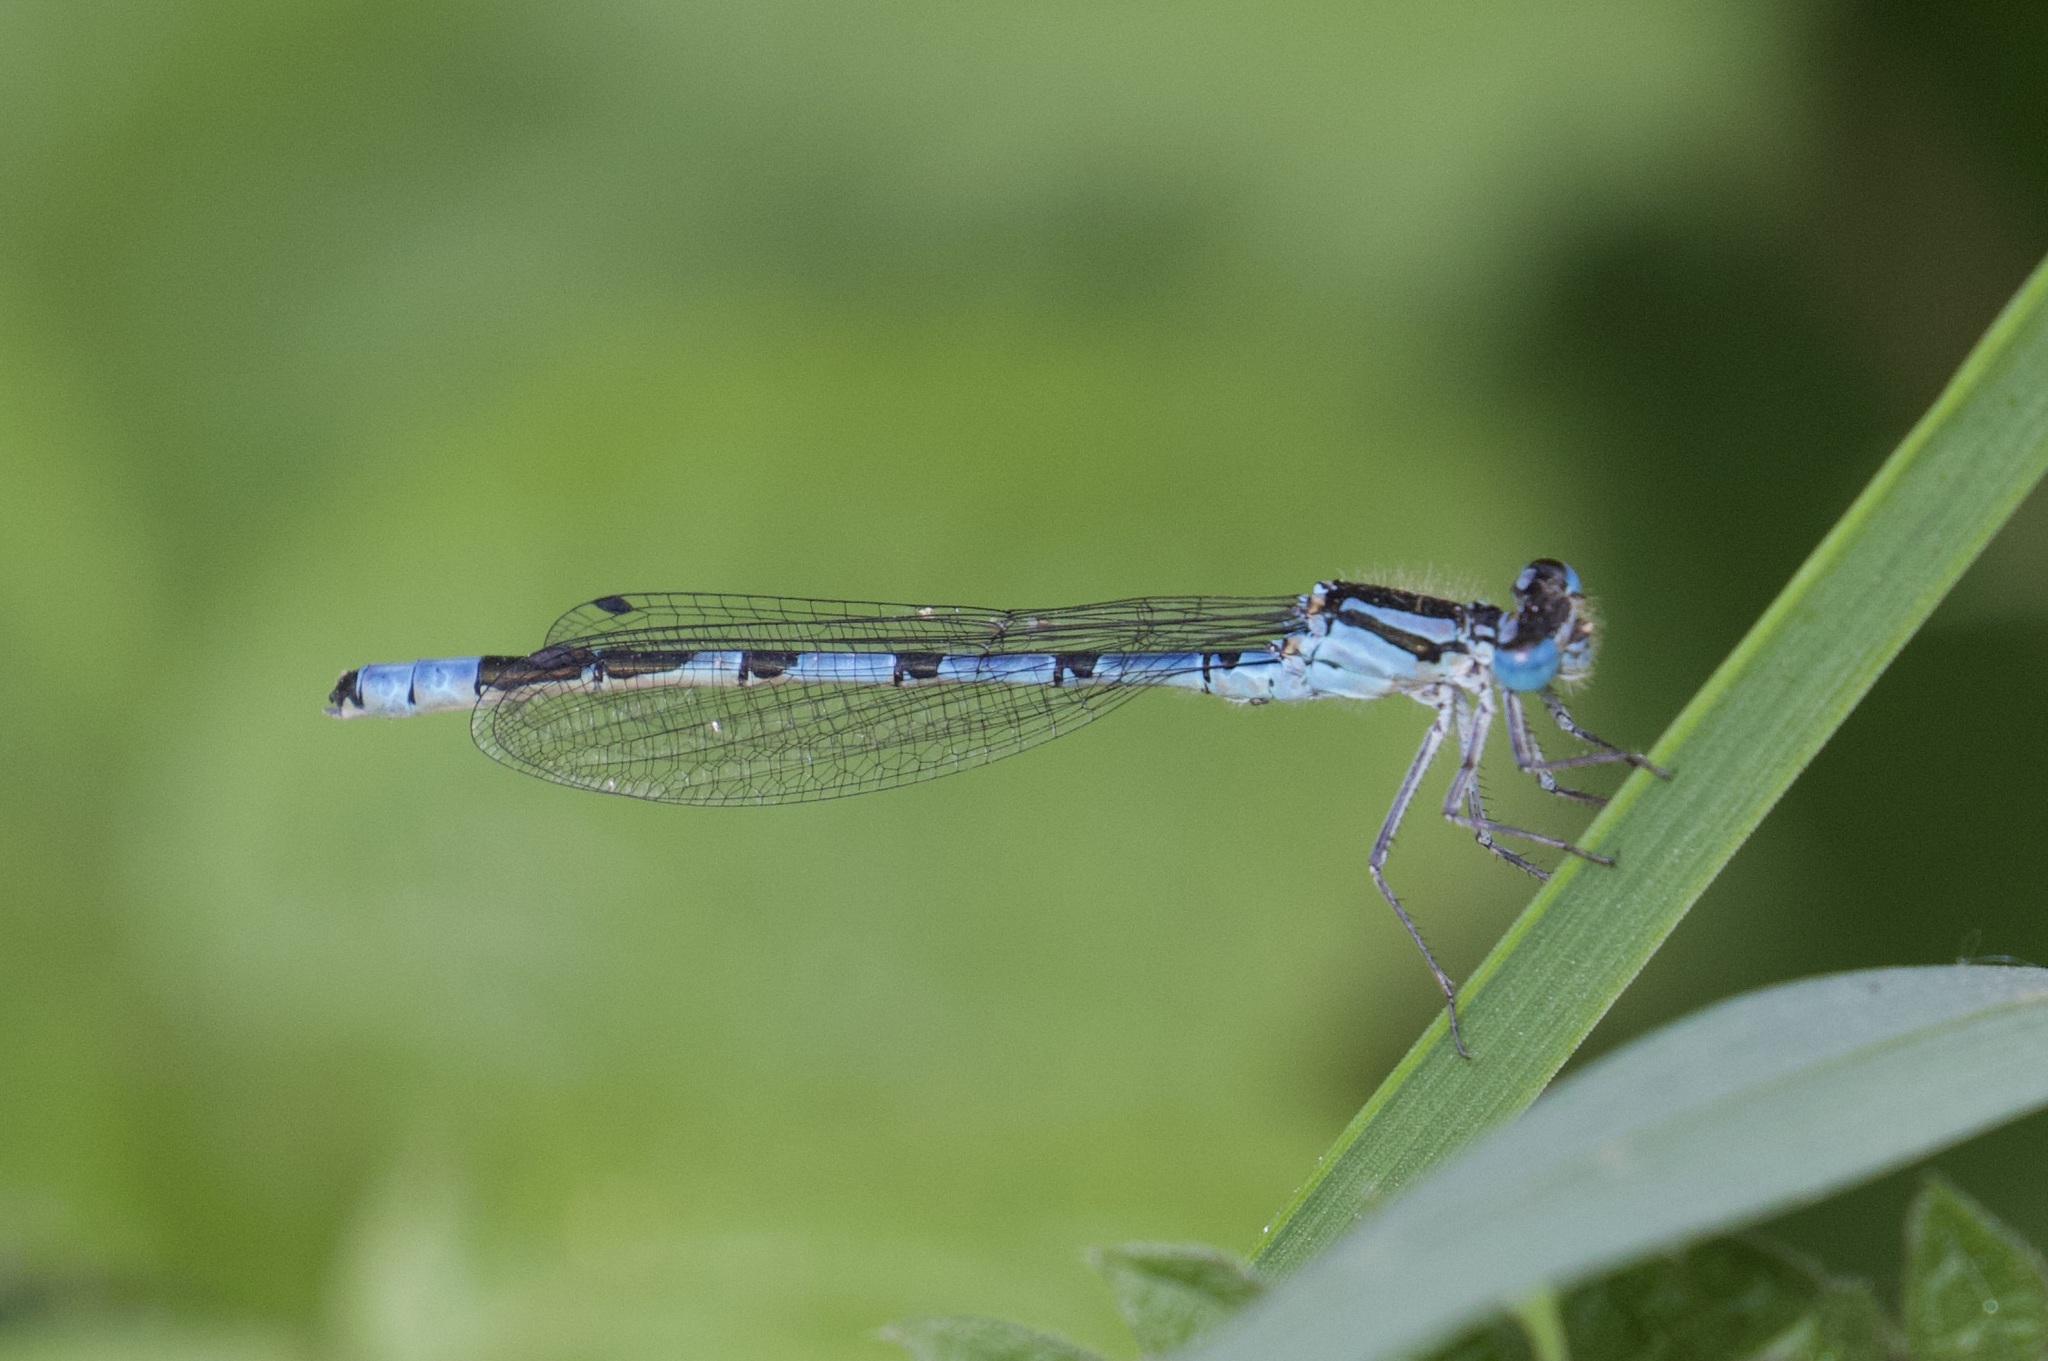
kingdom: Animalia
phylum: Arthropoda
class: Insecta
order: Odonata
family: Coenagrionidae
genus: Enallagma
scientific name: Enallagma cyathigerum
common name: Common blue damselfly
